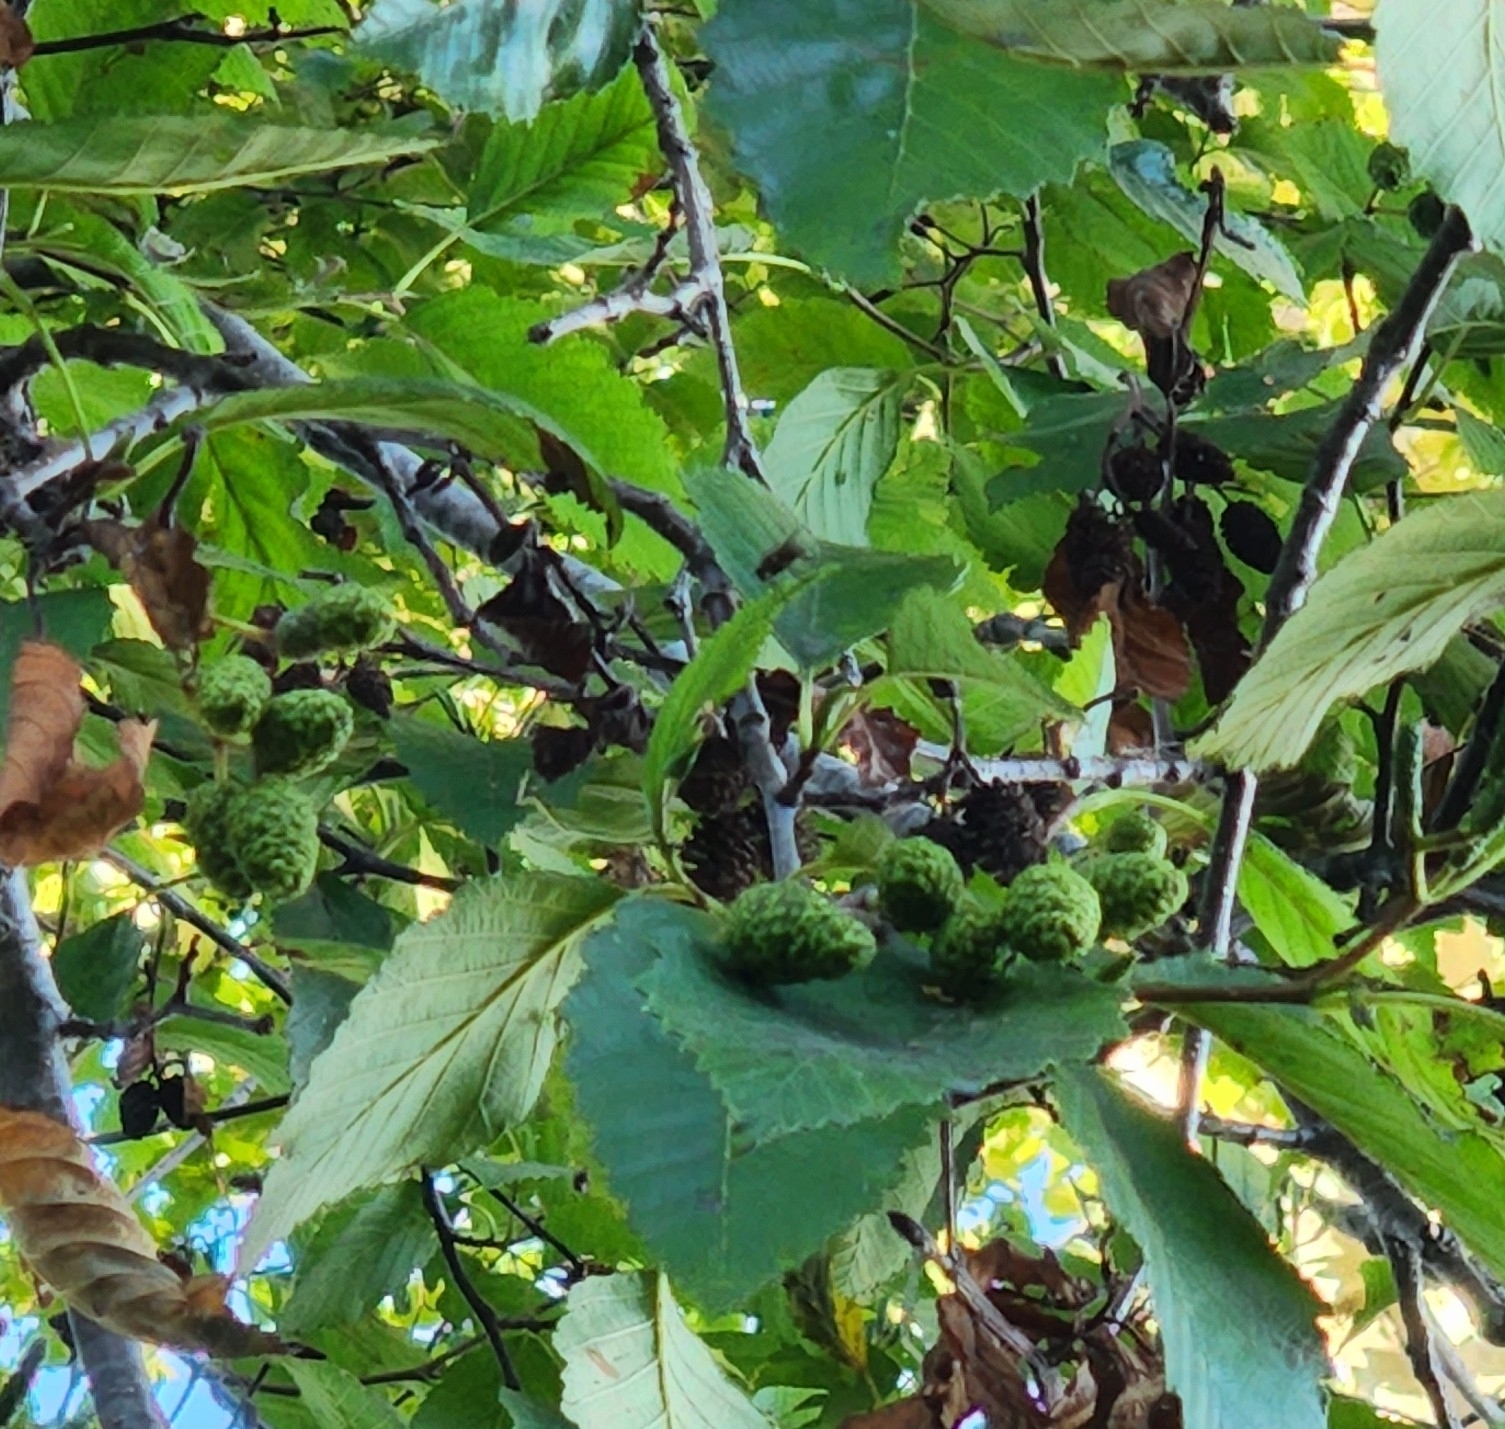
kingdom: Plantae
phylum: Tracheophyta
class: Magnoliopsida
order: Fagales
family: Betulaceae
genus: Alnus
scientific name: Alnus rubra
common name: Red alder
